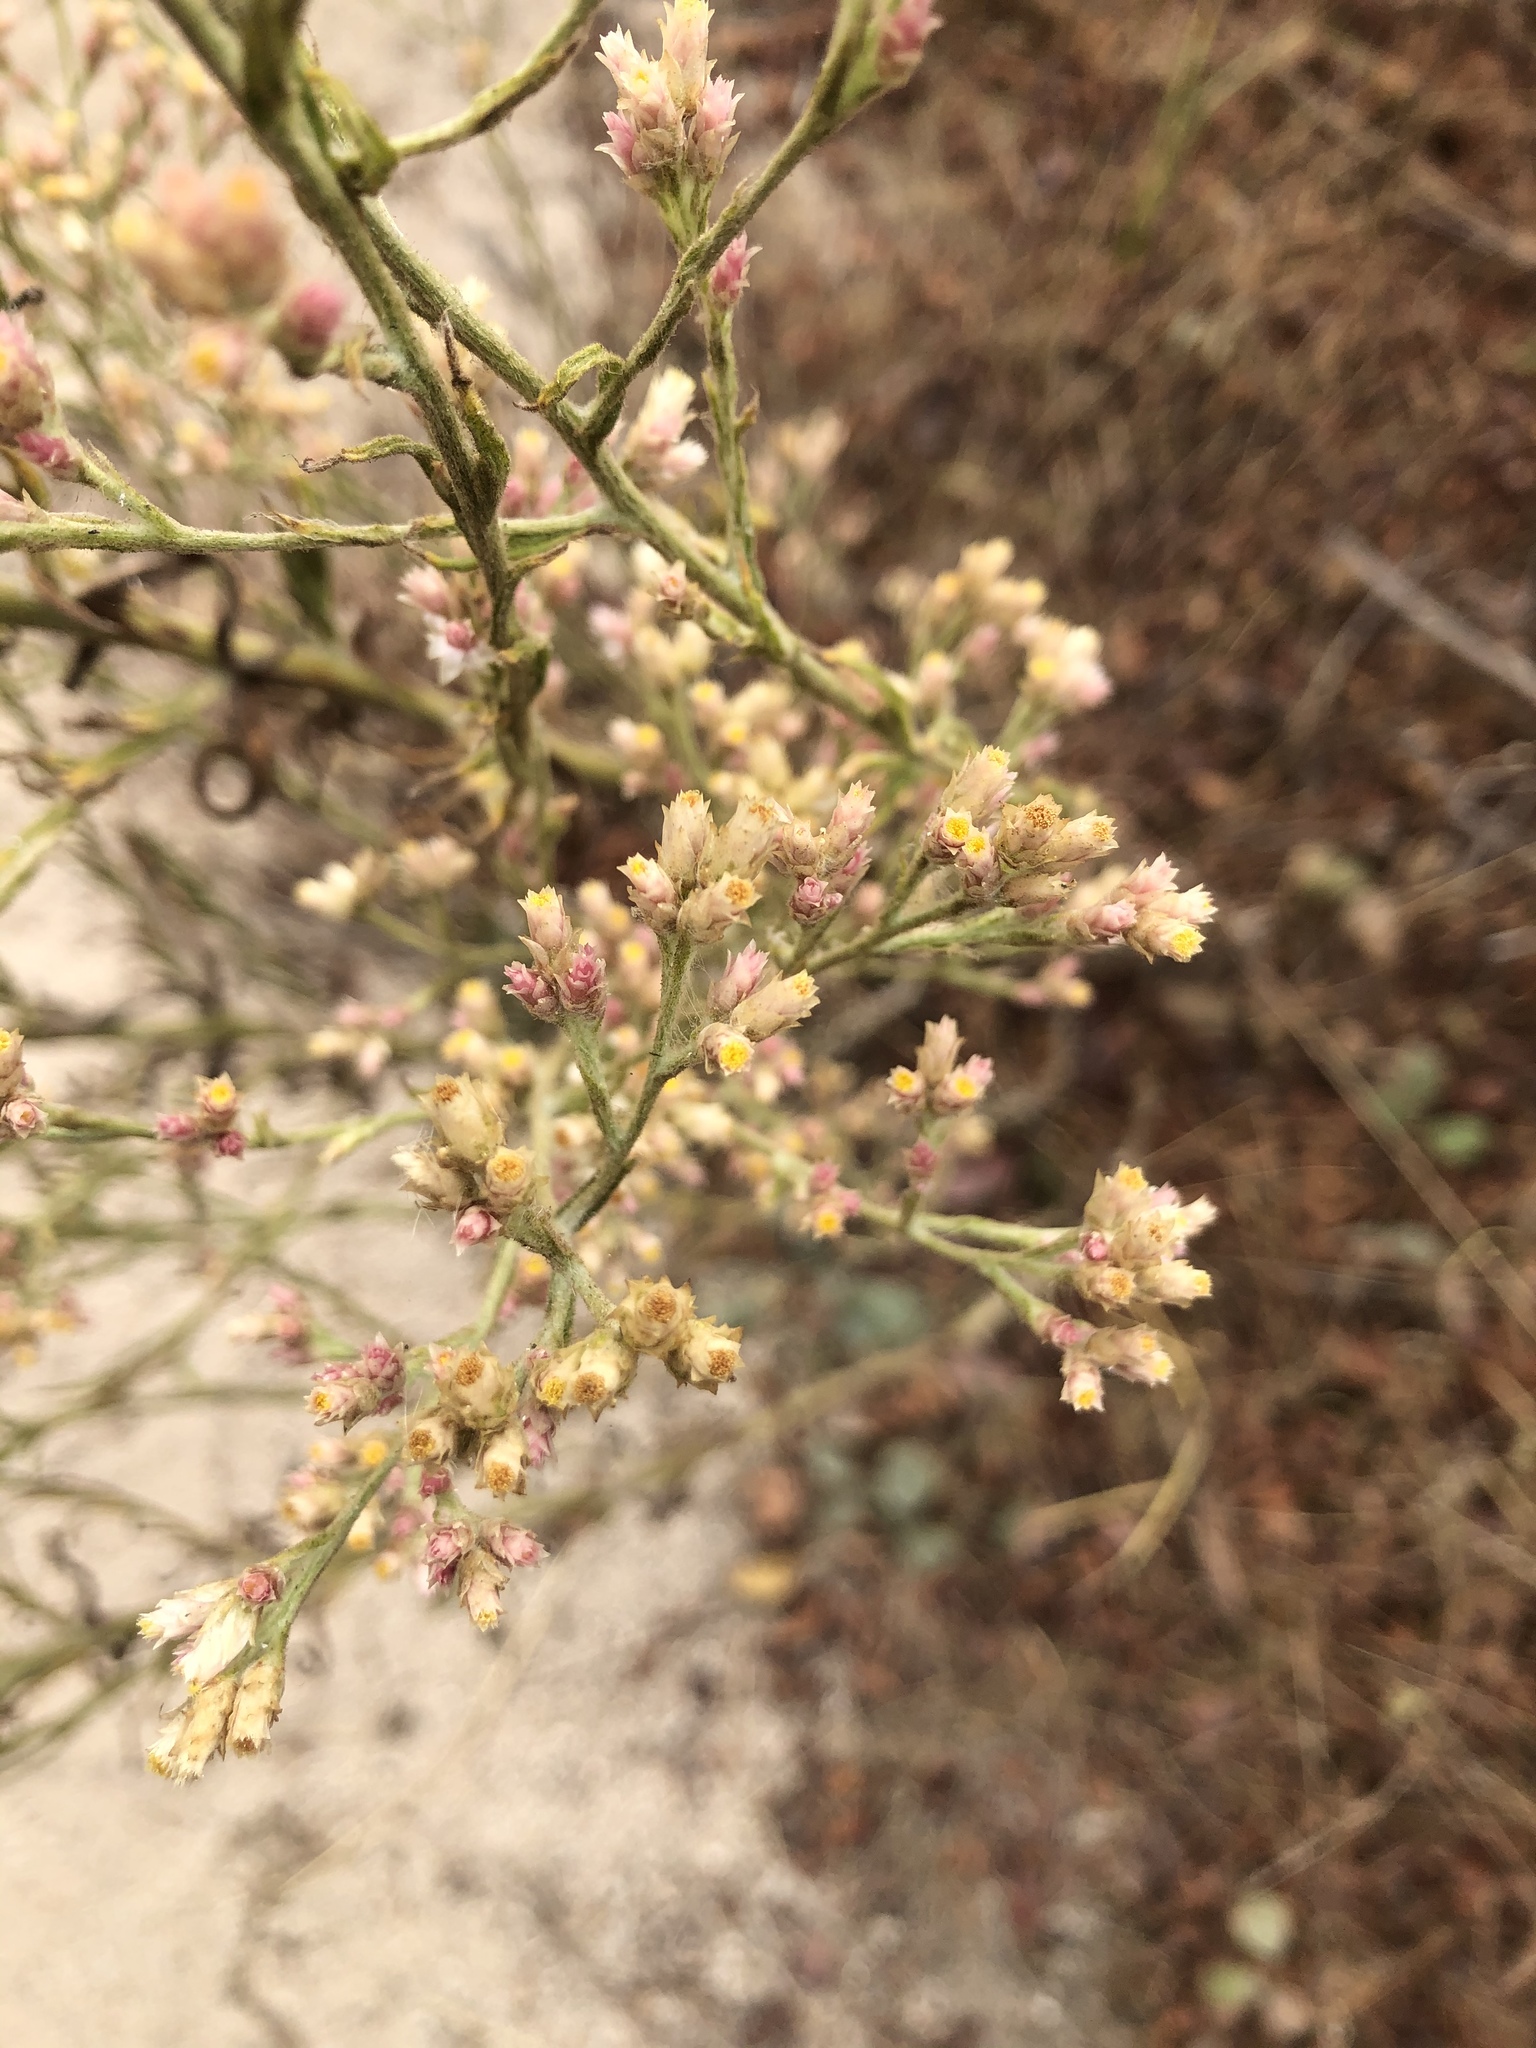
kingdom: Plantae
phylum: Tracheophyta
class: Magnoliopsida
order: Asterales
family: Asteraceae
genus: Pseudognaphalium
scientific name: Pseudognaphalium ramosissimum
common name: Pink rabbit-tobacco
